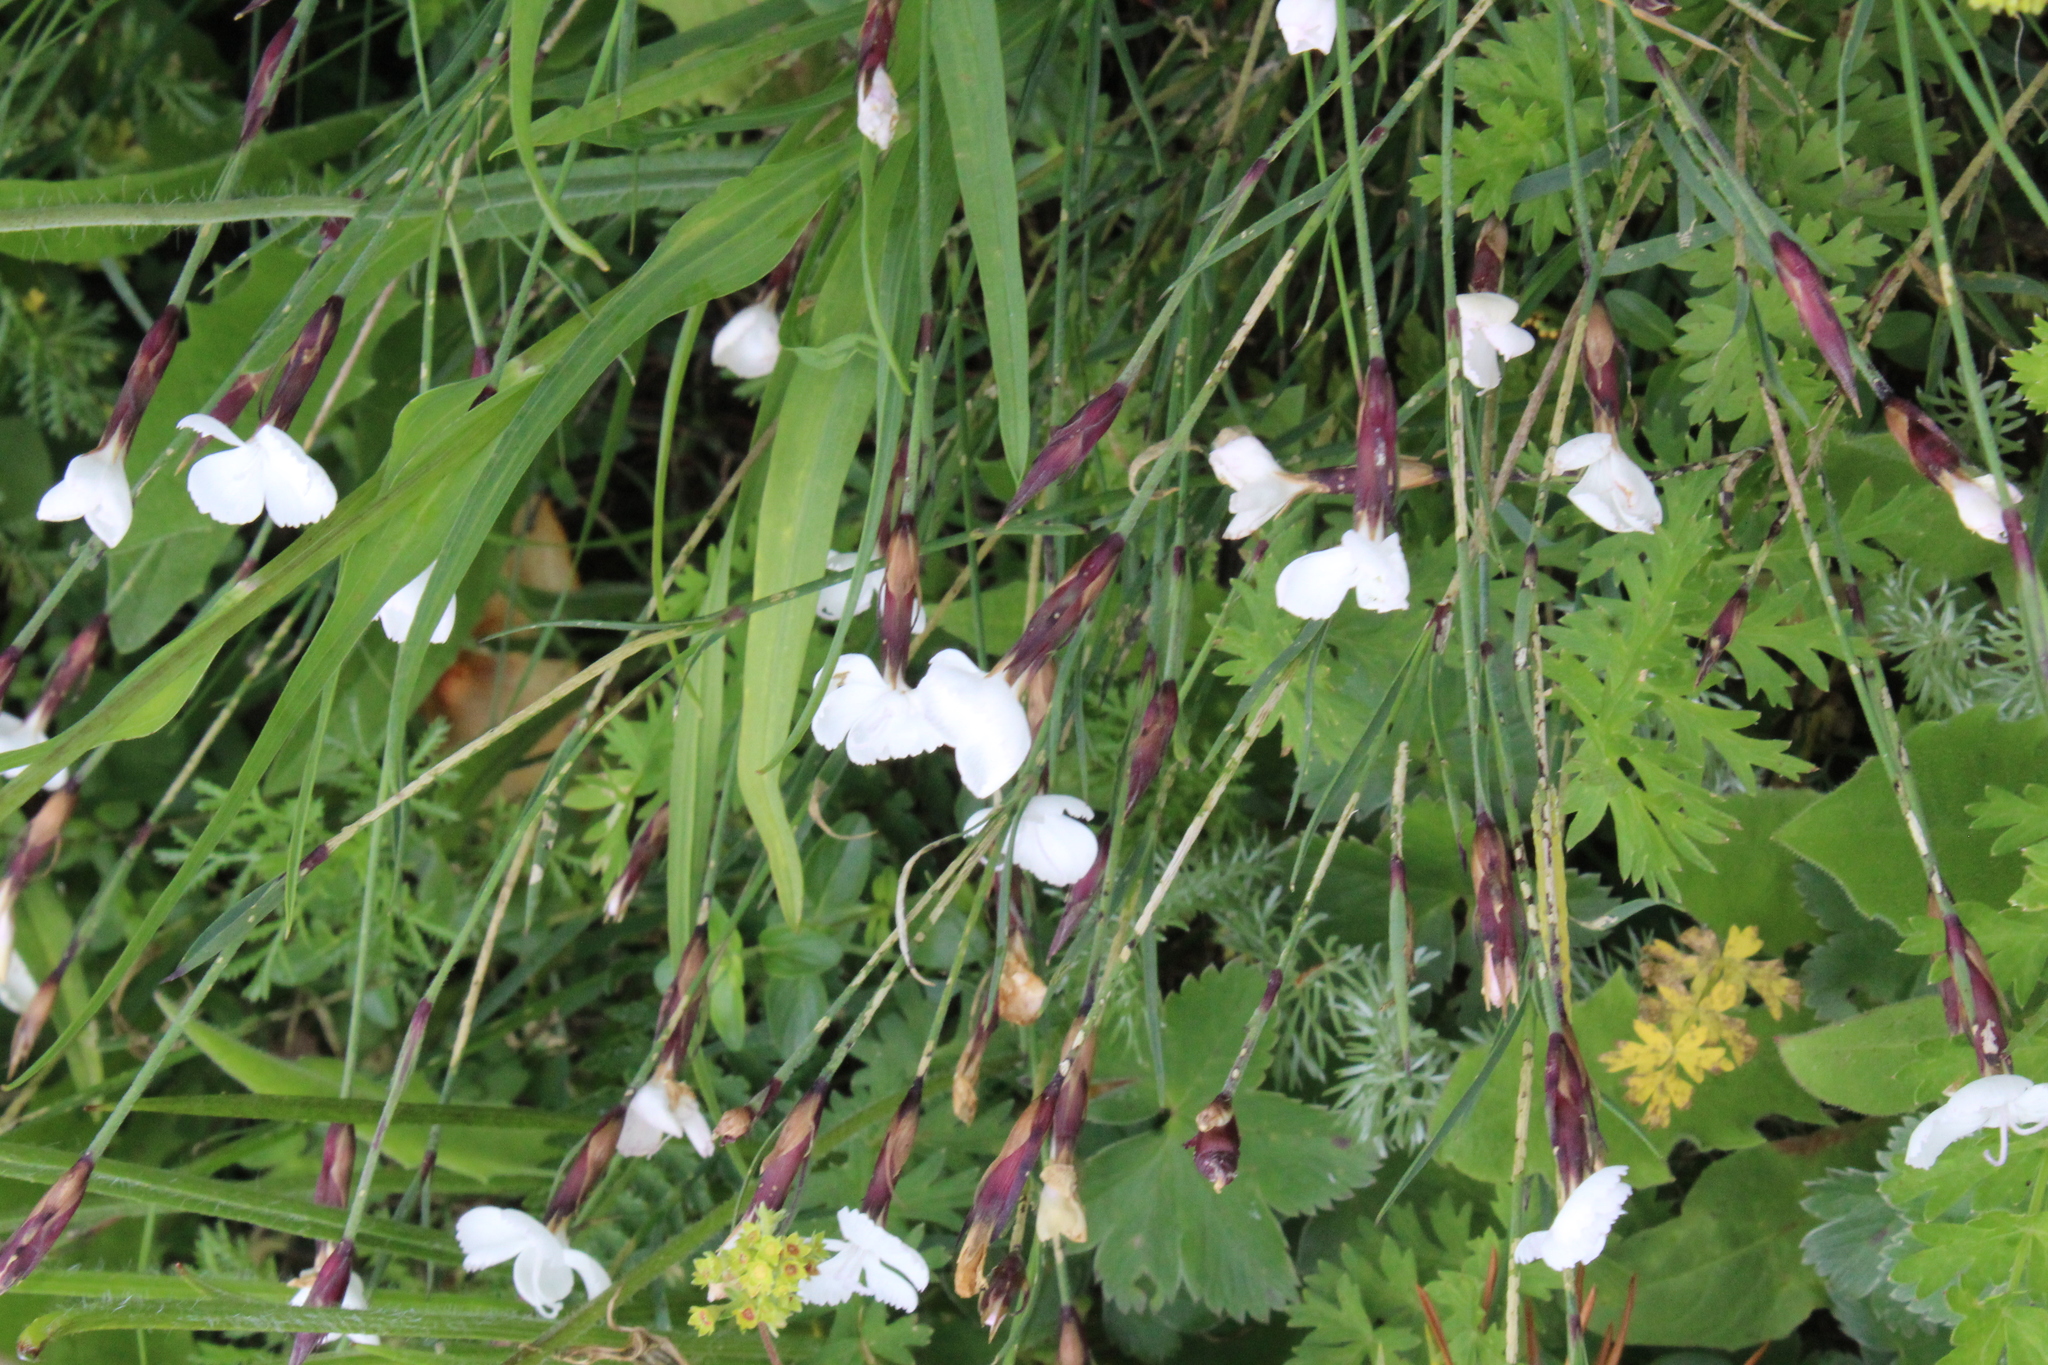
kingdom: Plantae
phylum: Tracheophyta
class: Magnoliopsida
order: Caryophyllales
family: Caryophyllaceae
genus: Dianthus
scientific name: Dianthus cretaceus
